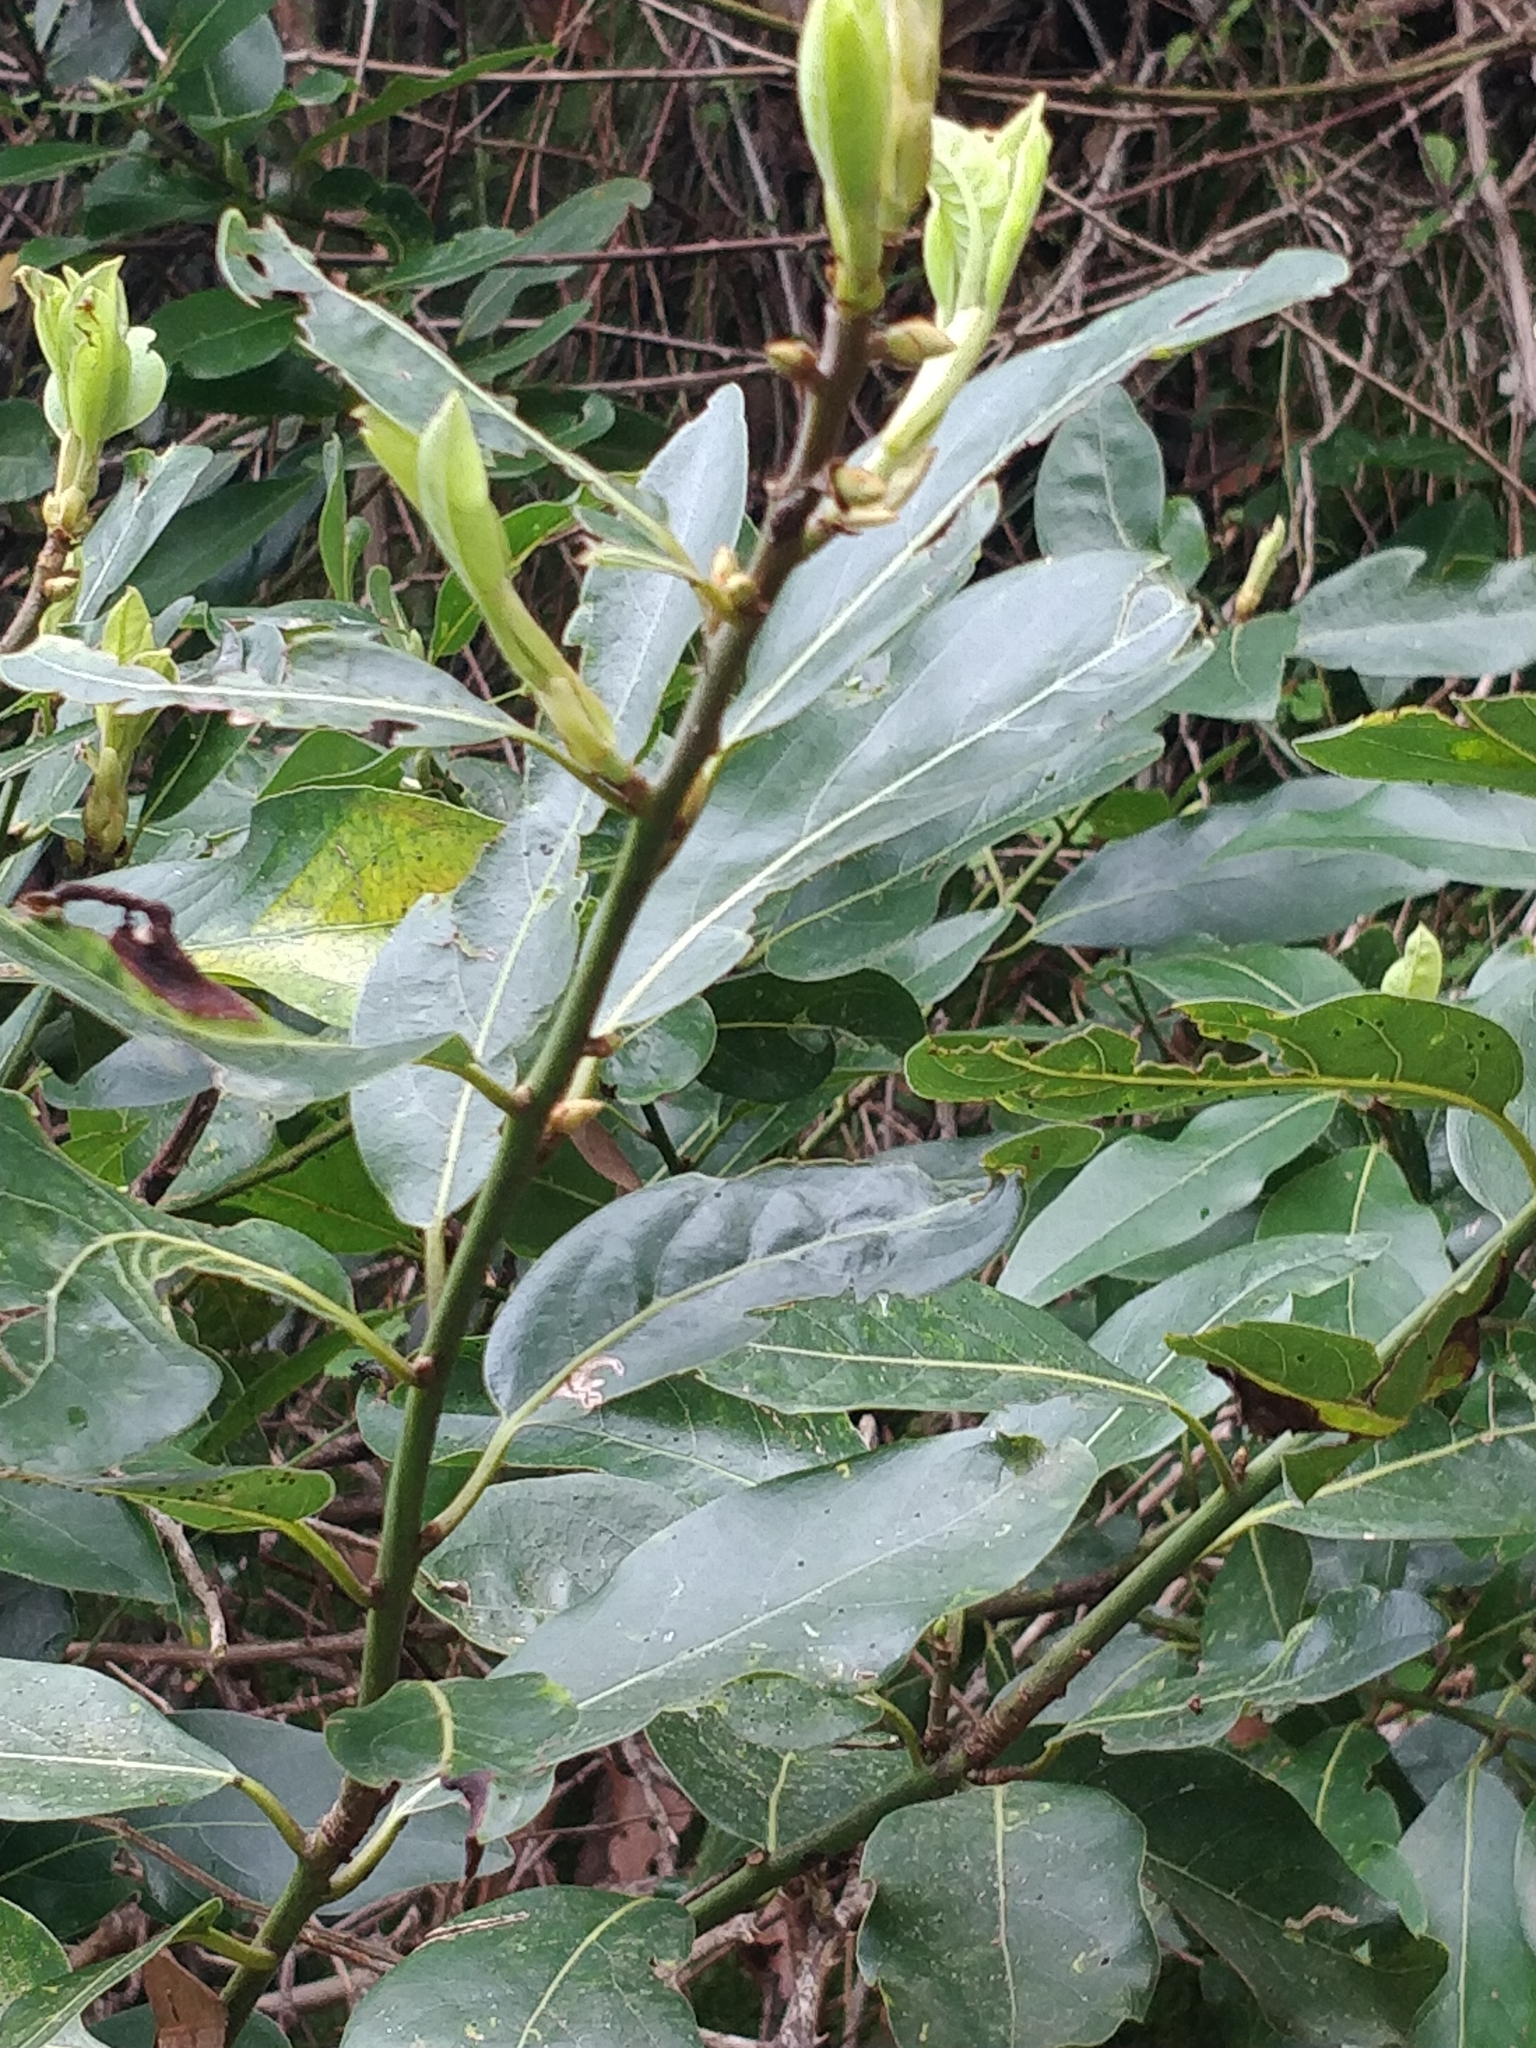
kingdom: Plantae
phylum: Tracheophyta
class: Magnoliopsida
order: Laurales
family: Lauraceae
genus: Laurus
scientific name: Laurus novocanariensis
